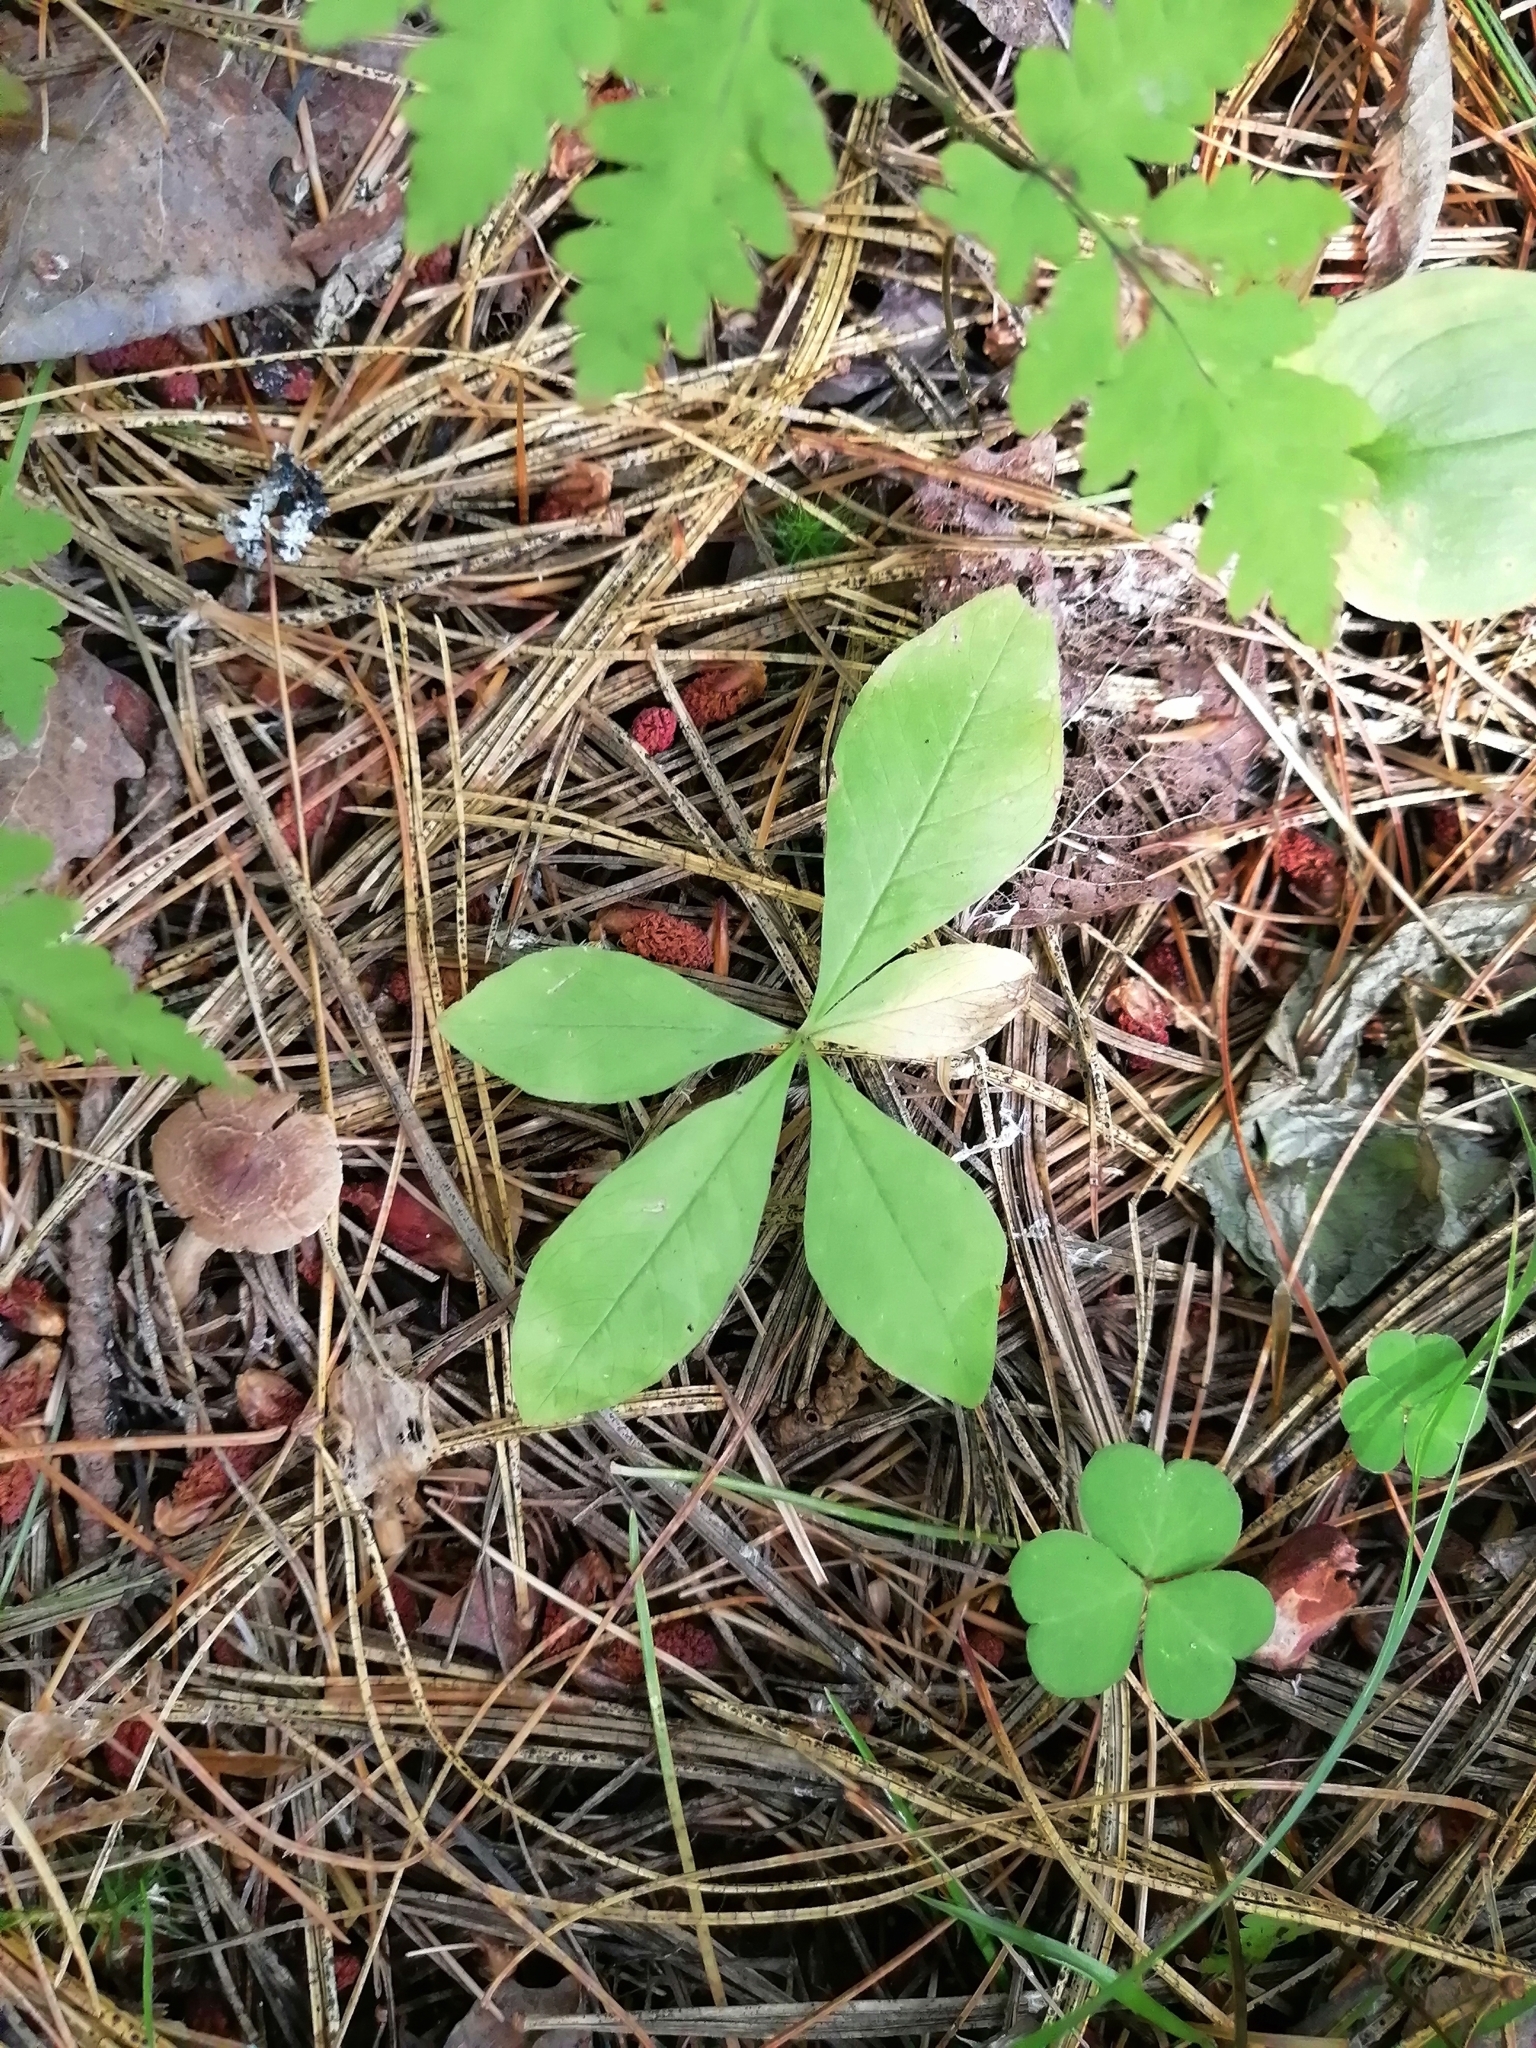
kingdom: Plantae
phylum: Tracheophyta
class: Magnoliopsida
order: Ericales
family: Primulaceae
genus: Lysimachia
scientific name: Lysimachia europaea
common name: Arctic starflower
